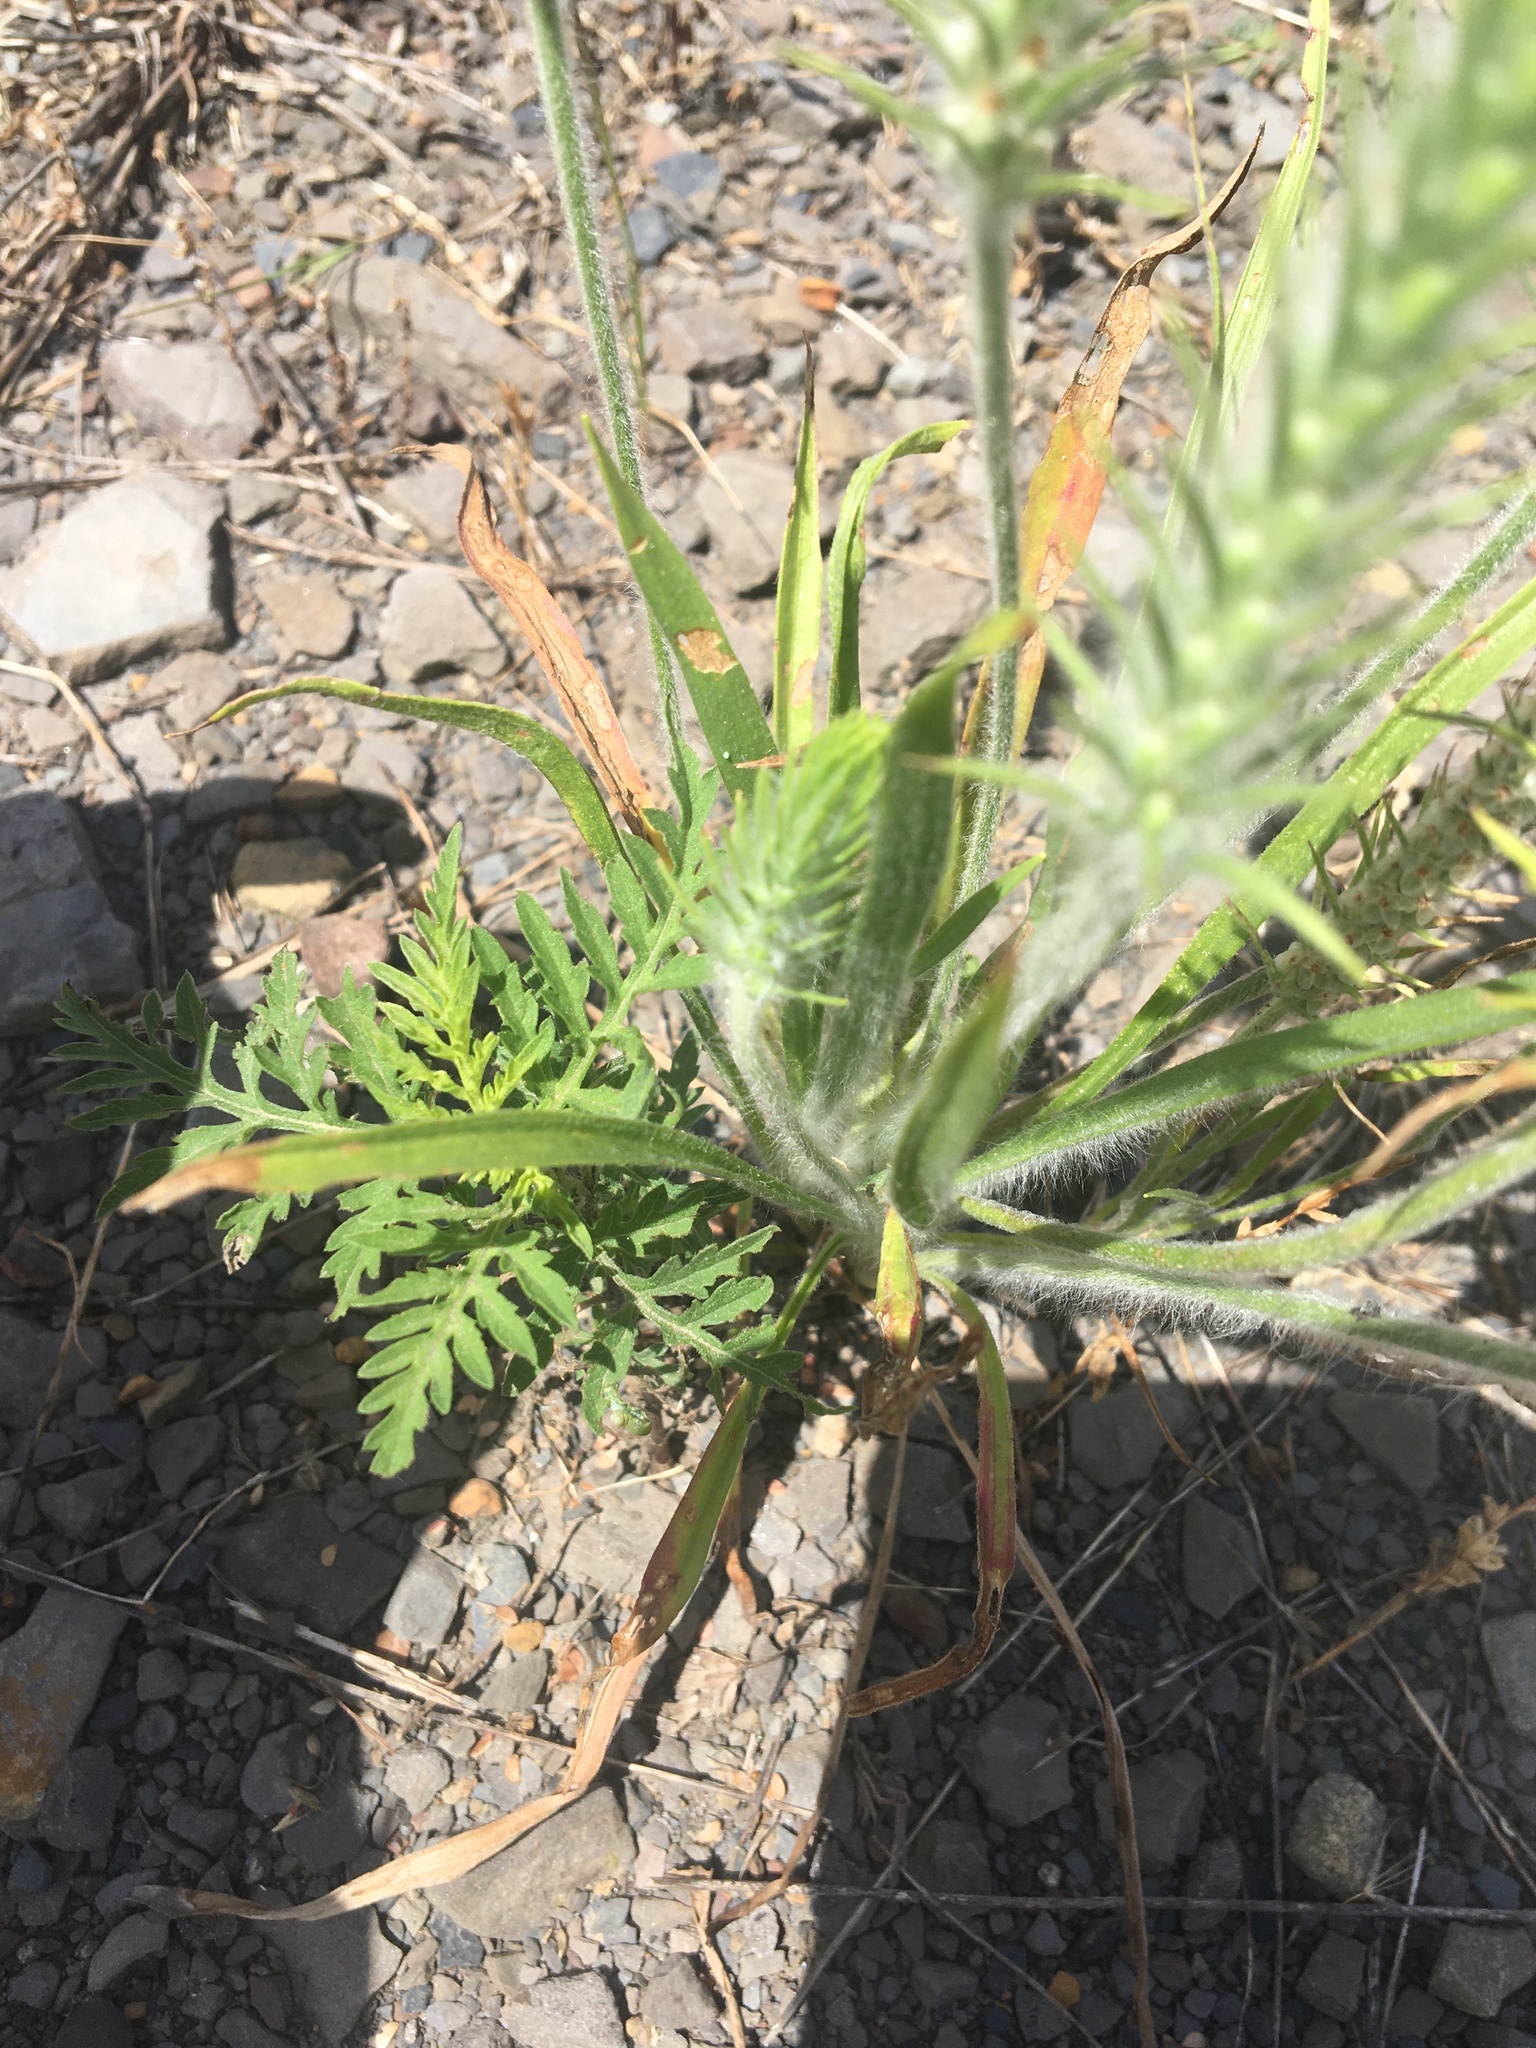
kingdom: Plantae
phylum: Tracheophyta
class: Magnoliopsida
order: Lamiales
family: Plantaginaceae
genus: Plantago
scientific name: Plantago aristata
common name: Bracted plantain
